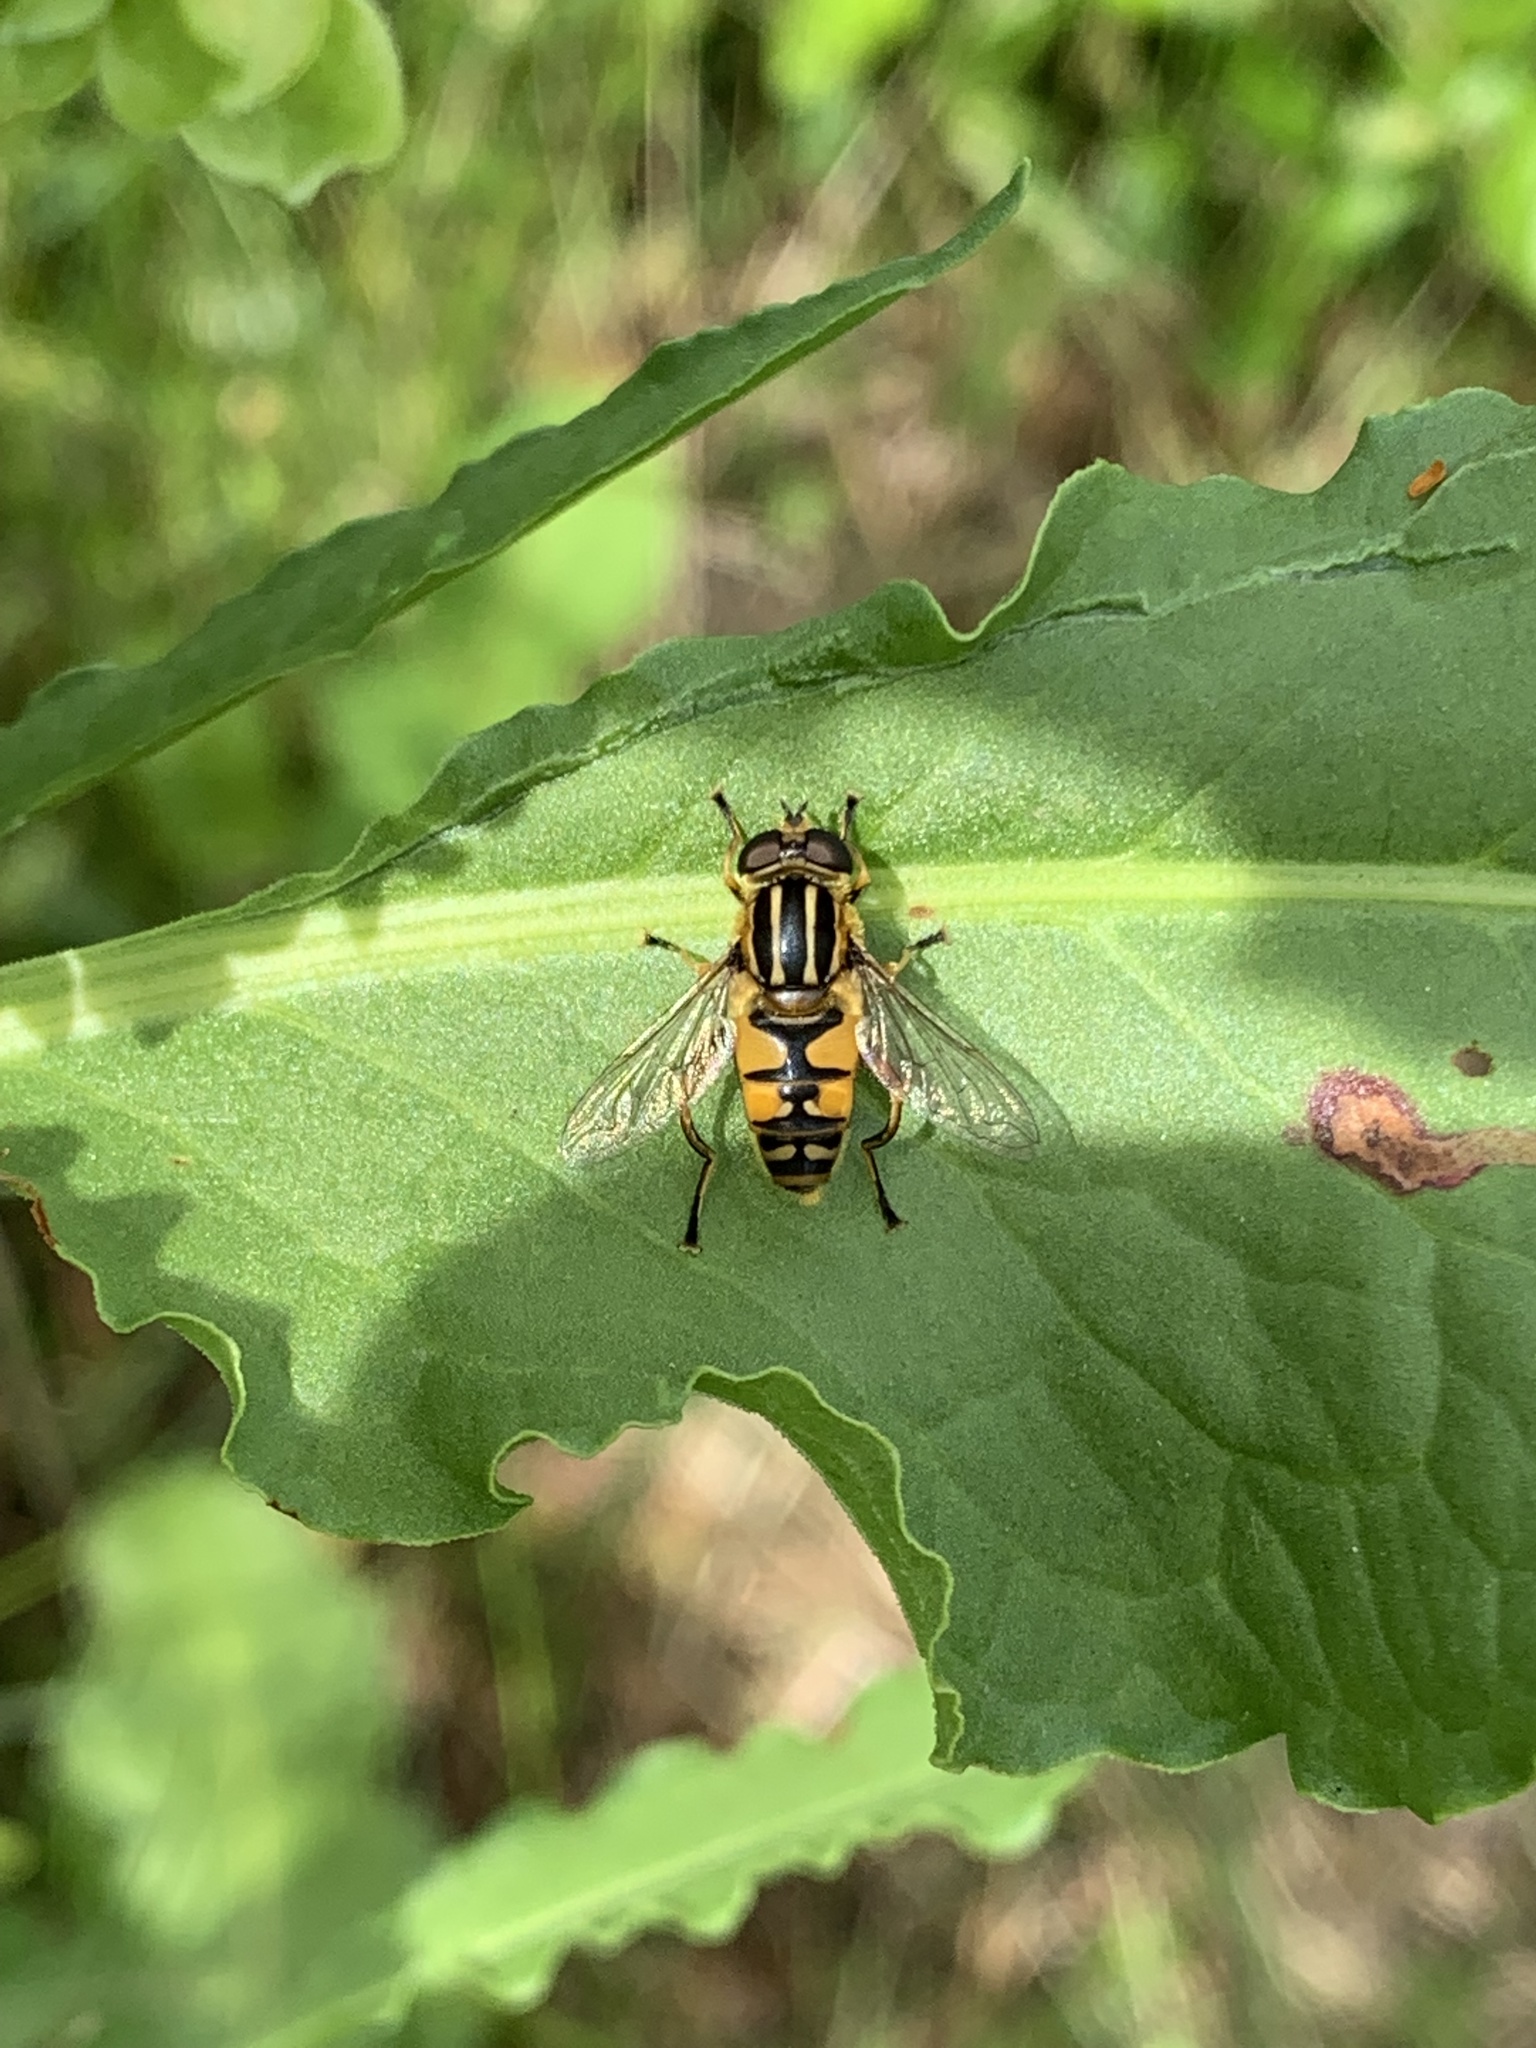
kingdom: Animalia
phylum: Arthropoda
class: Insecta
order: Diptera
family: Syrphidae
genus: Helophilus
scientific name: Helophilus pendulus
